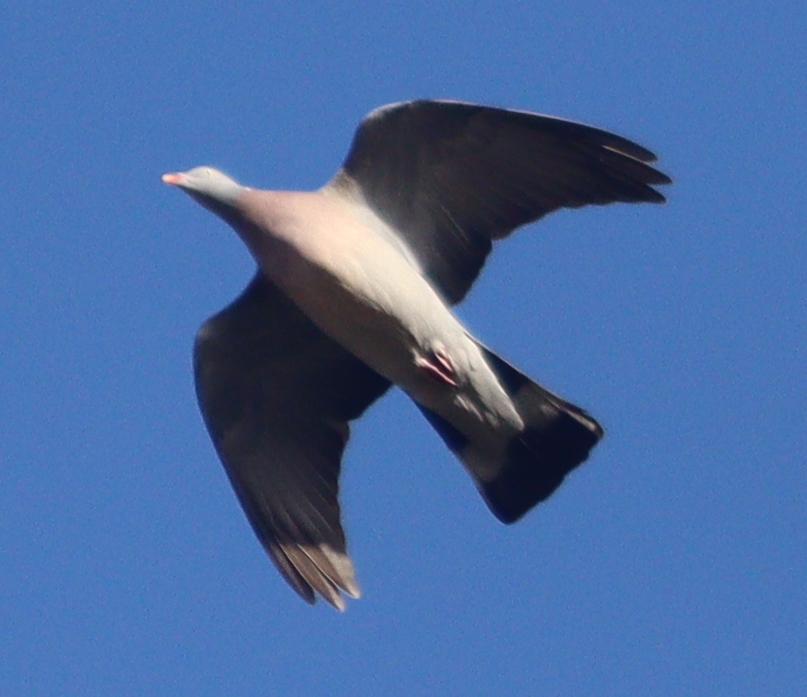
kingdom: Animalia
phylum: Chordata
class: Aves
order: Columbiformes
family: Columbidae
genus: Columba
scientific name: Columba palumbus
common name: Common wood pigeon
